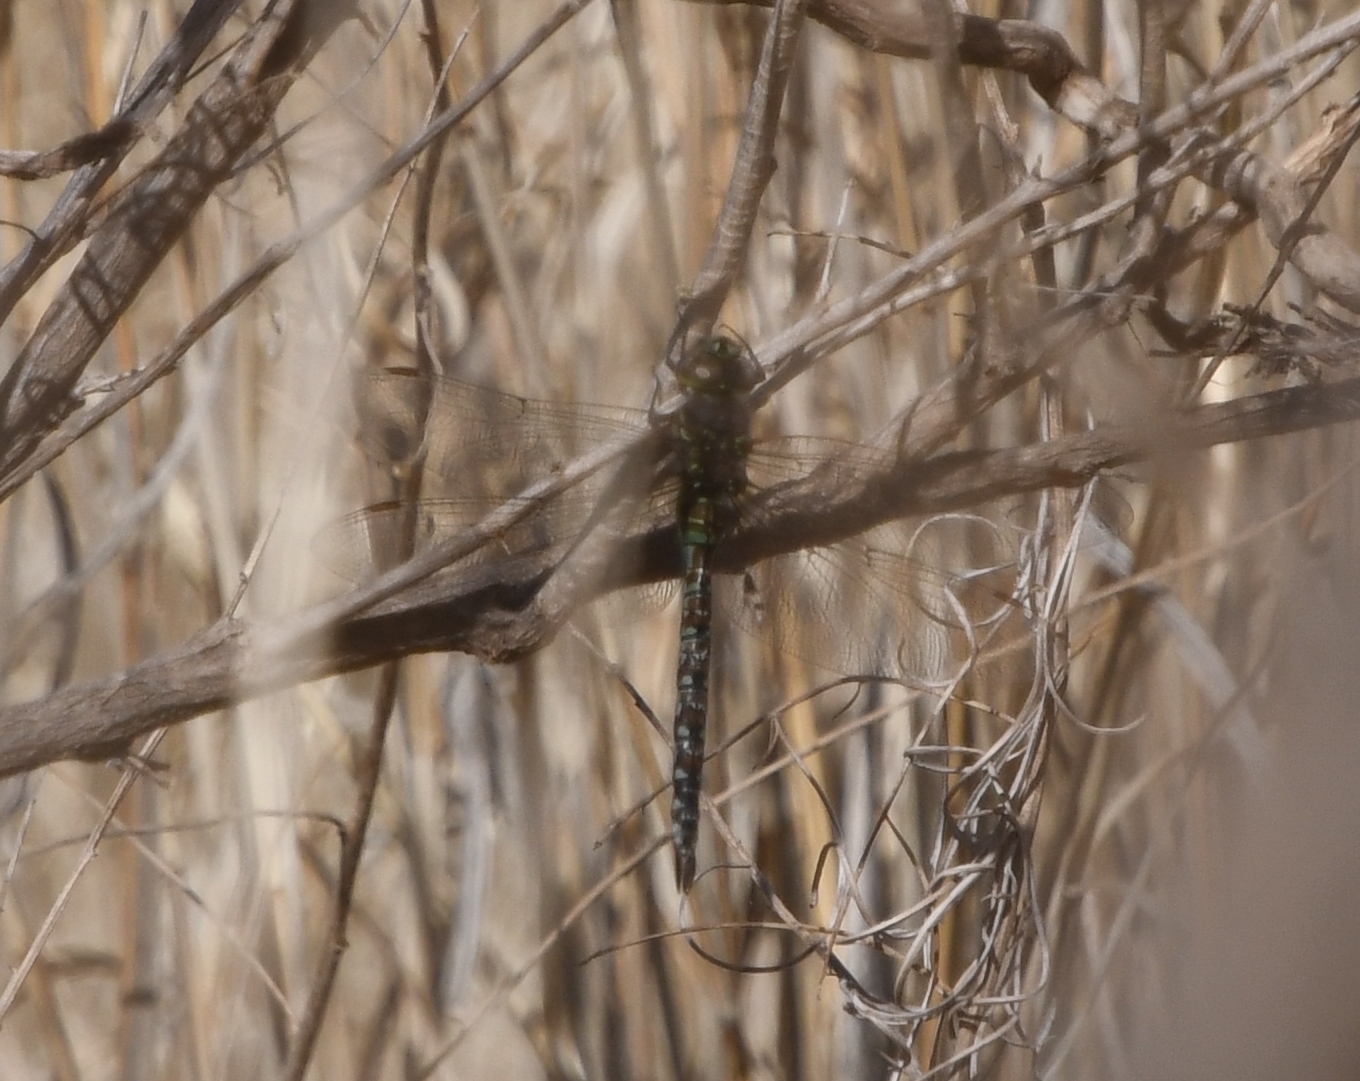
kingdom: Animalia
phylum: Arthropoda
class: Insecta
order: Odonata
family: Aeshnidae
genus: Rhionaeschna
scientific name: Rhionaeschna multicolor
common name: Blue-eyed darner
